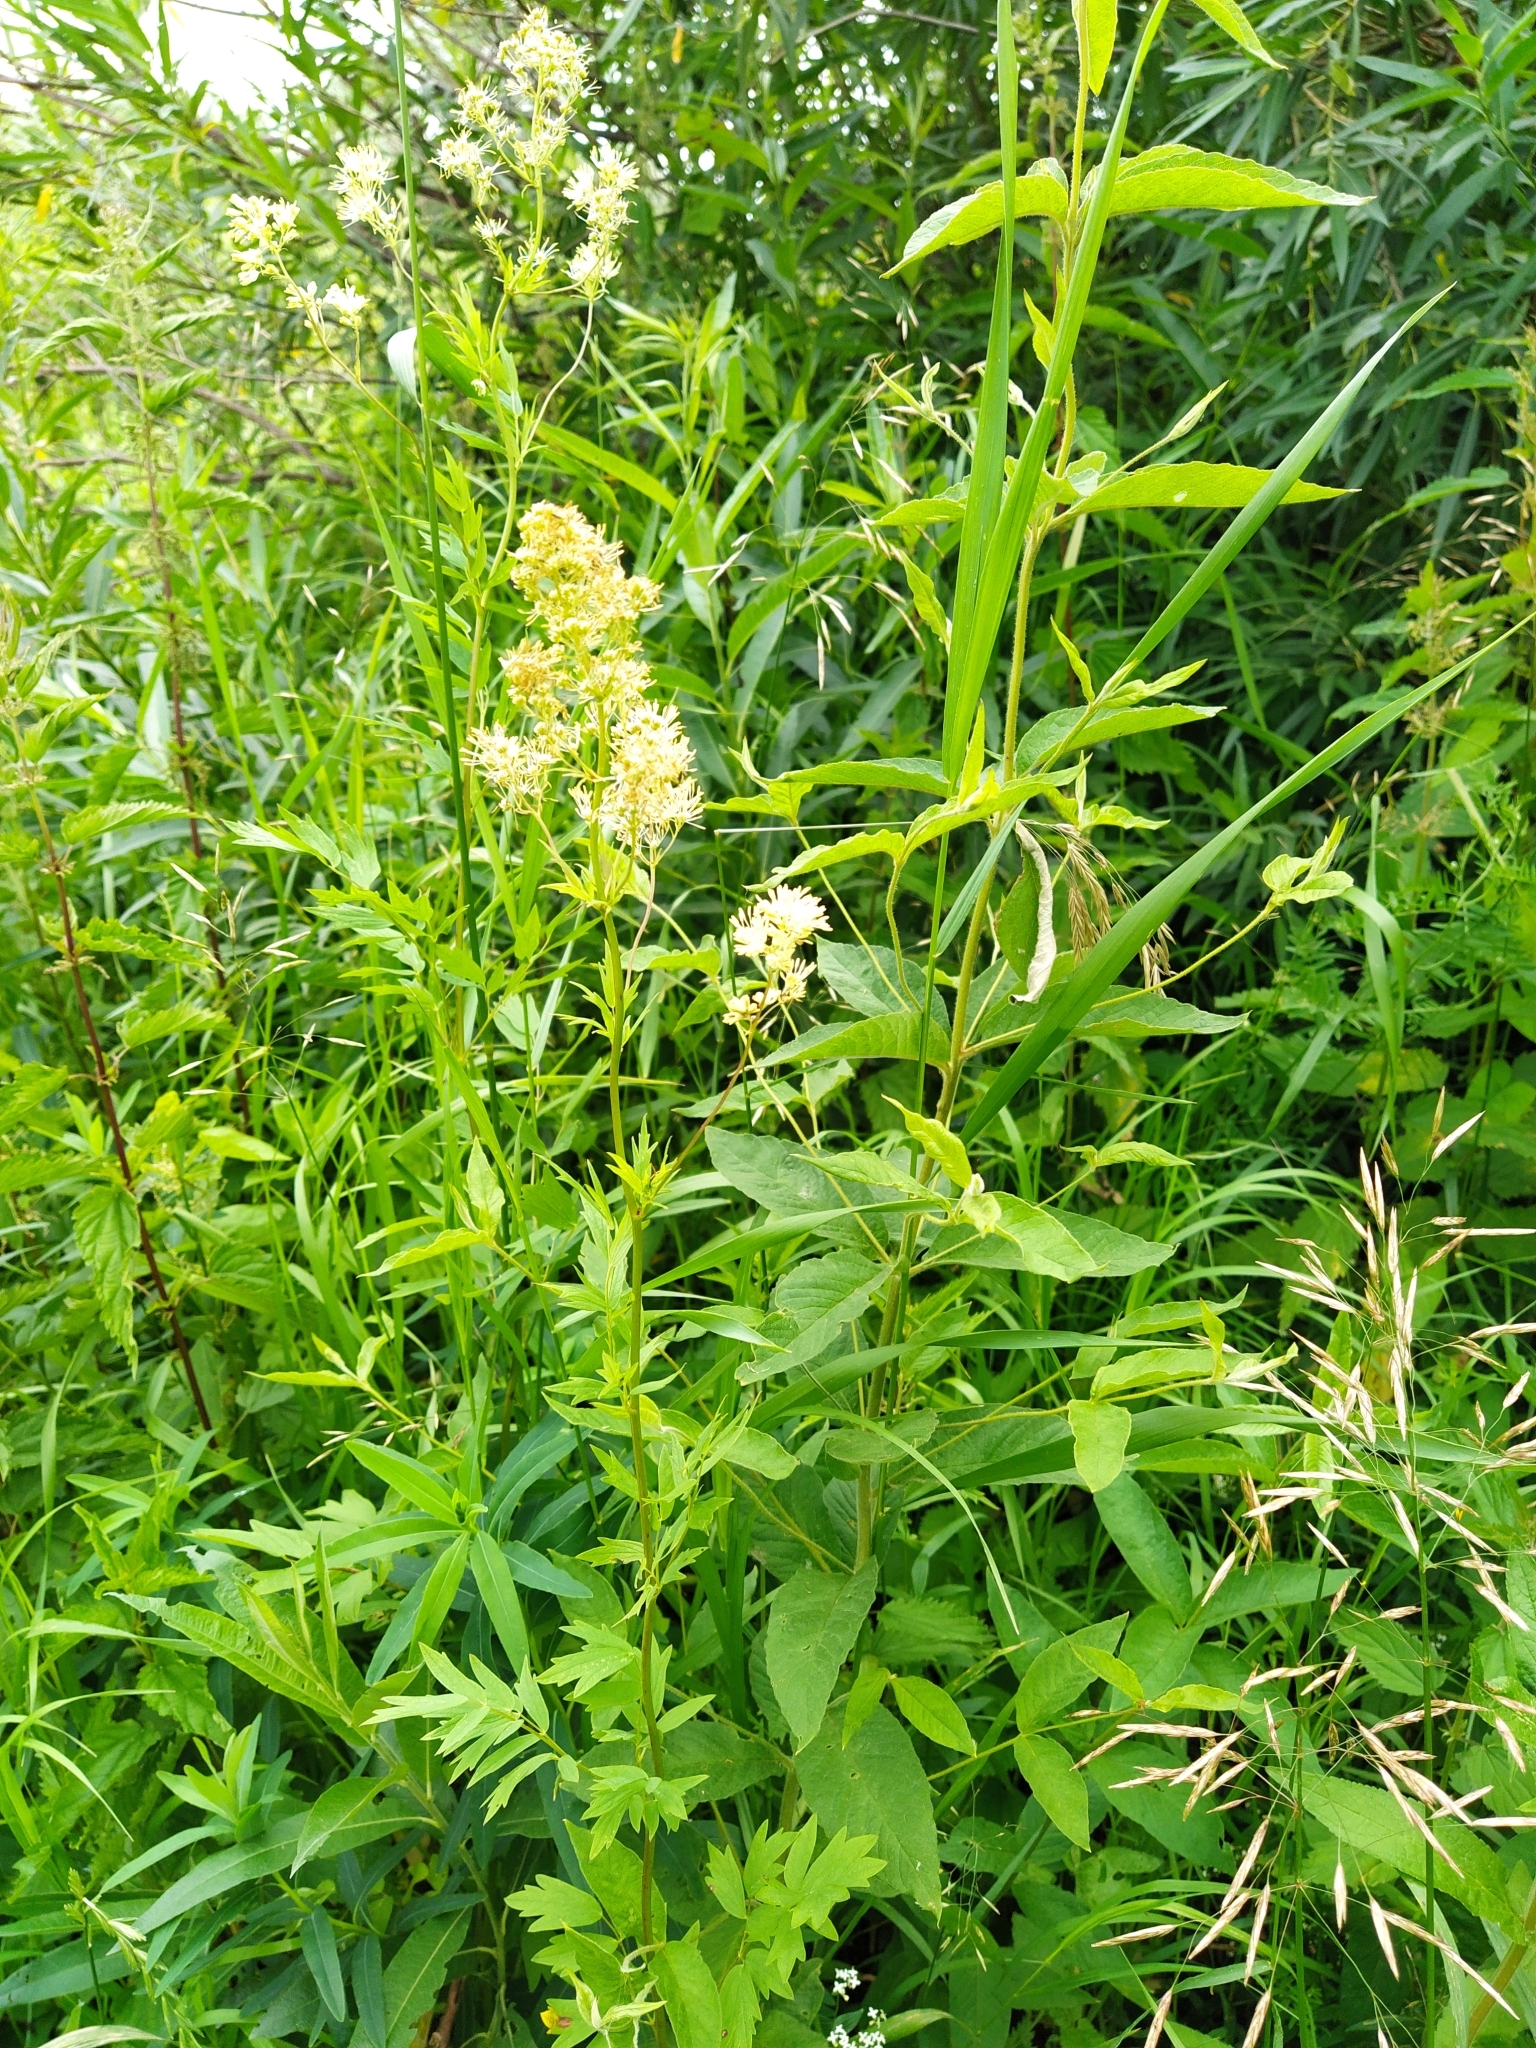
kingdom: Plantae
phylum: Tracheophyta
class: Magnoliopsida
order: Ranunculales
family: Ranunculaceae
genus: Thalictrum
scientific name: Thalictrum flavum
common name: Common meadow-rue
